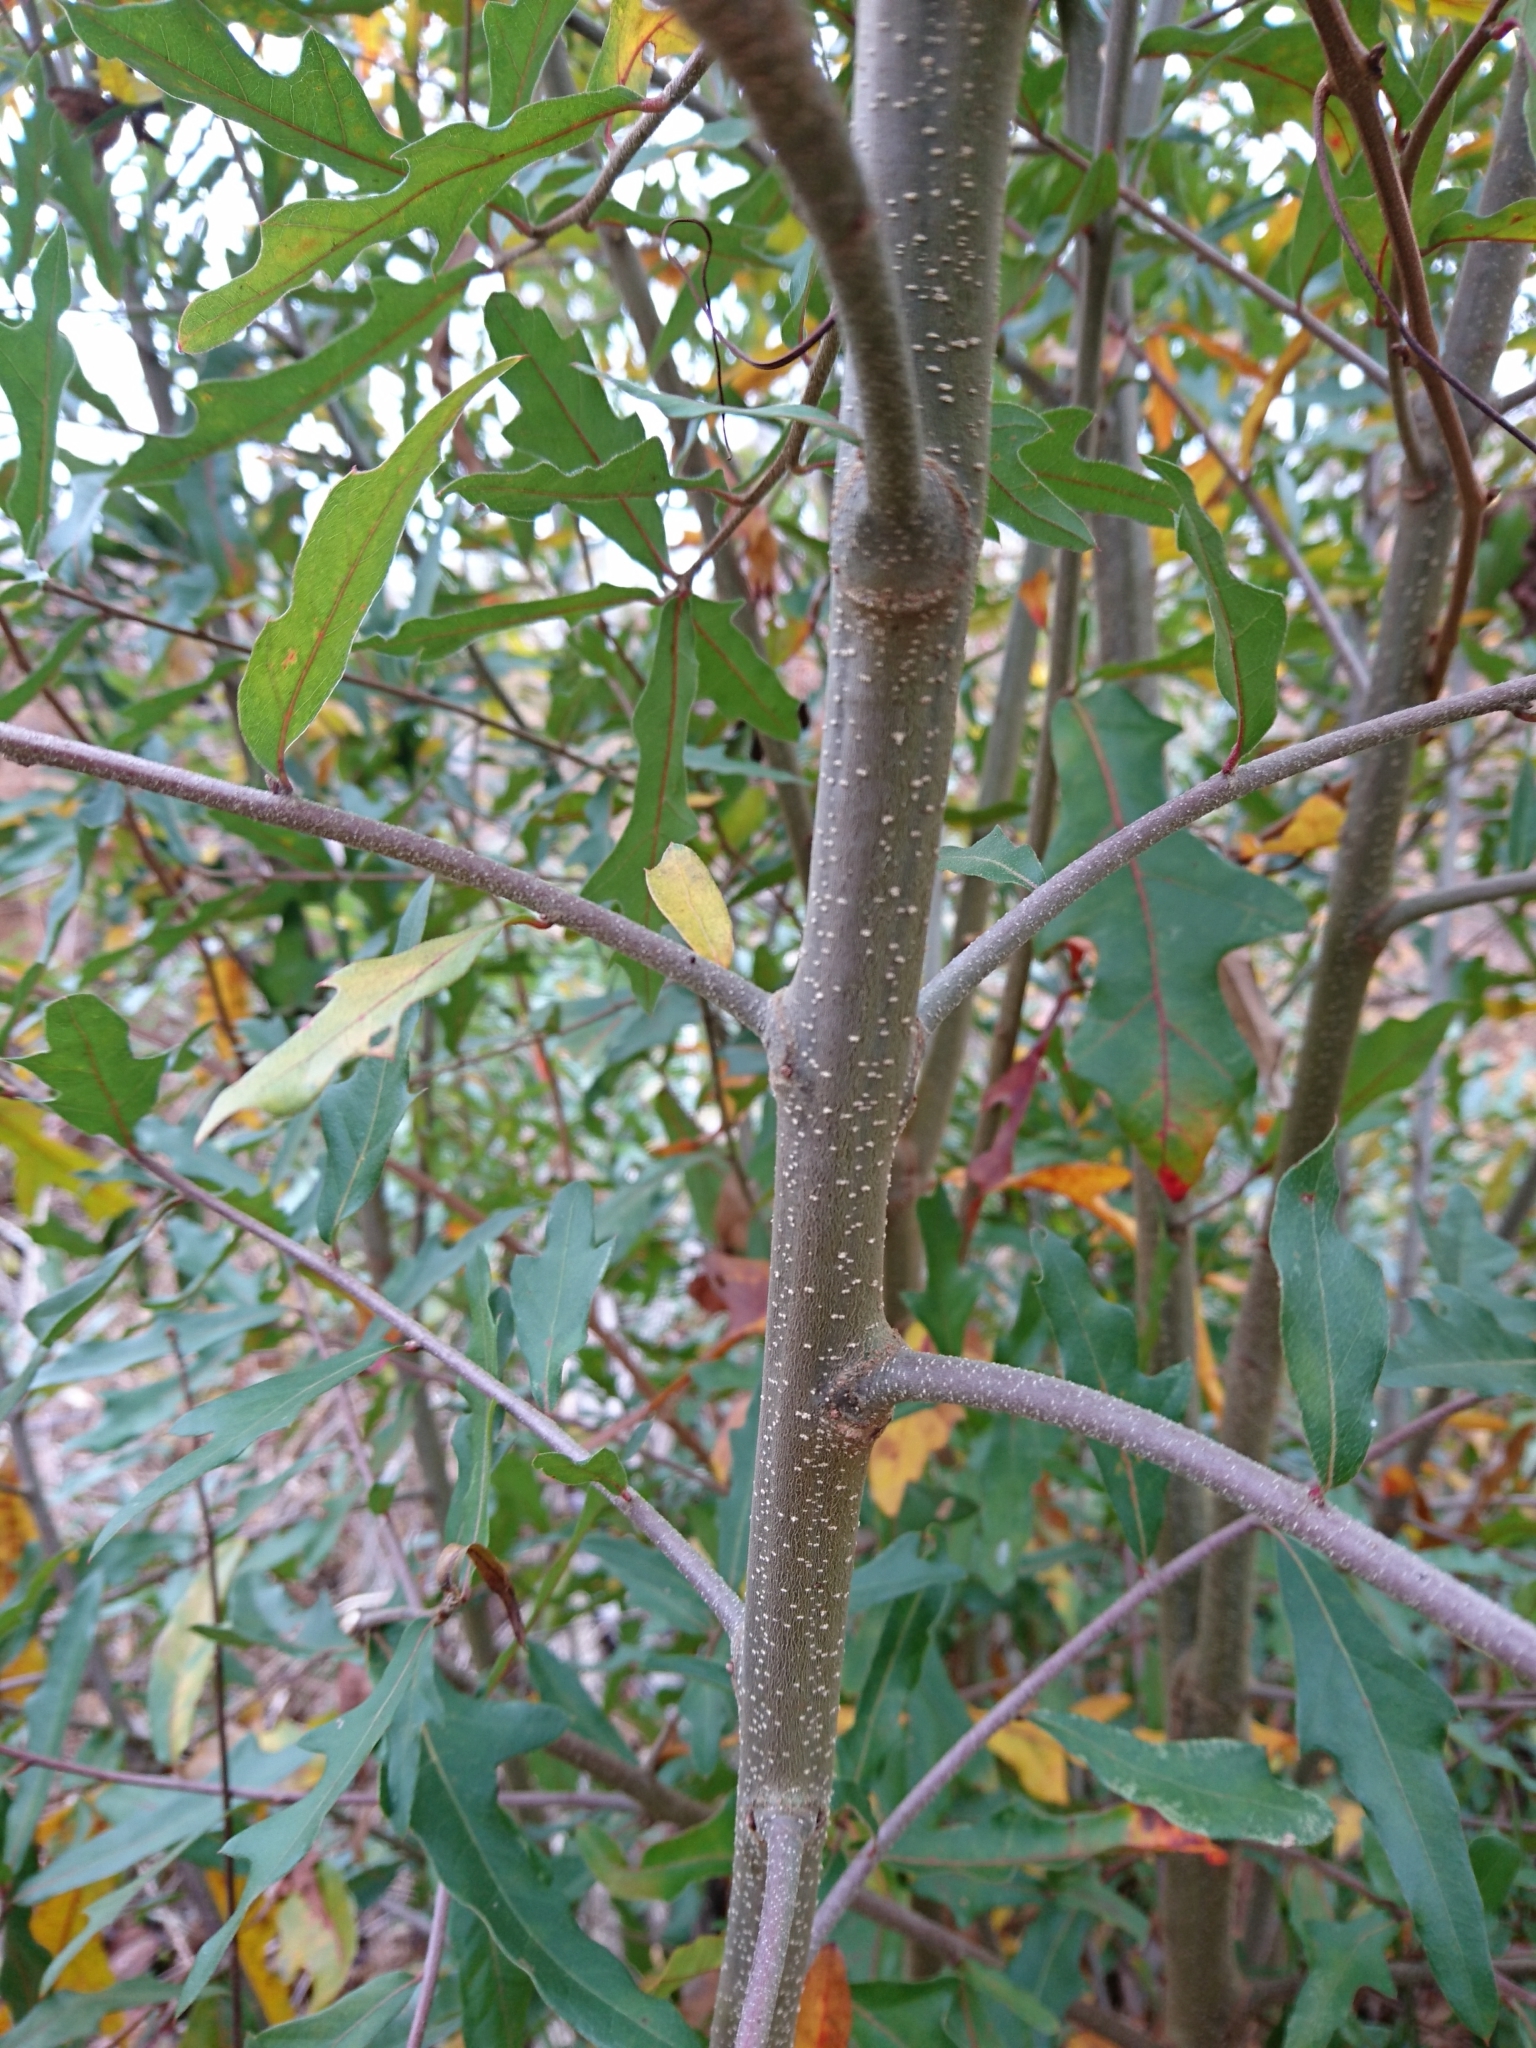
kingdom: Plantae
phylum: Tracheophyta
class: Magnoliopsida
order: Fagales
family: Fagaceae
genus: Quercus
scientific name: Quercus hemisphaerica
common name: Darlington oak
